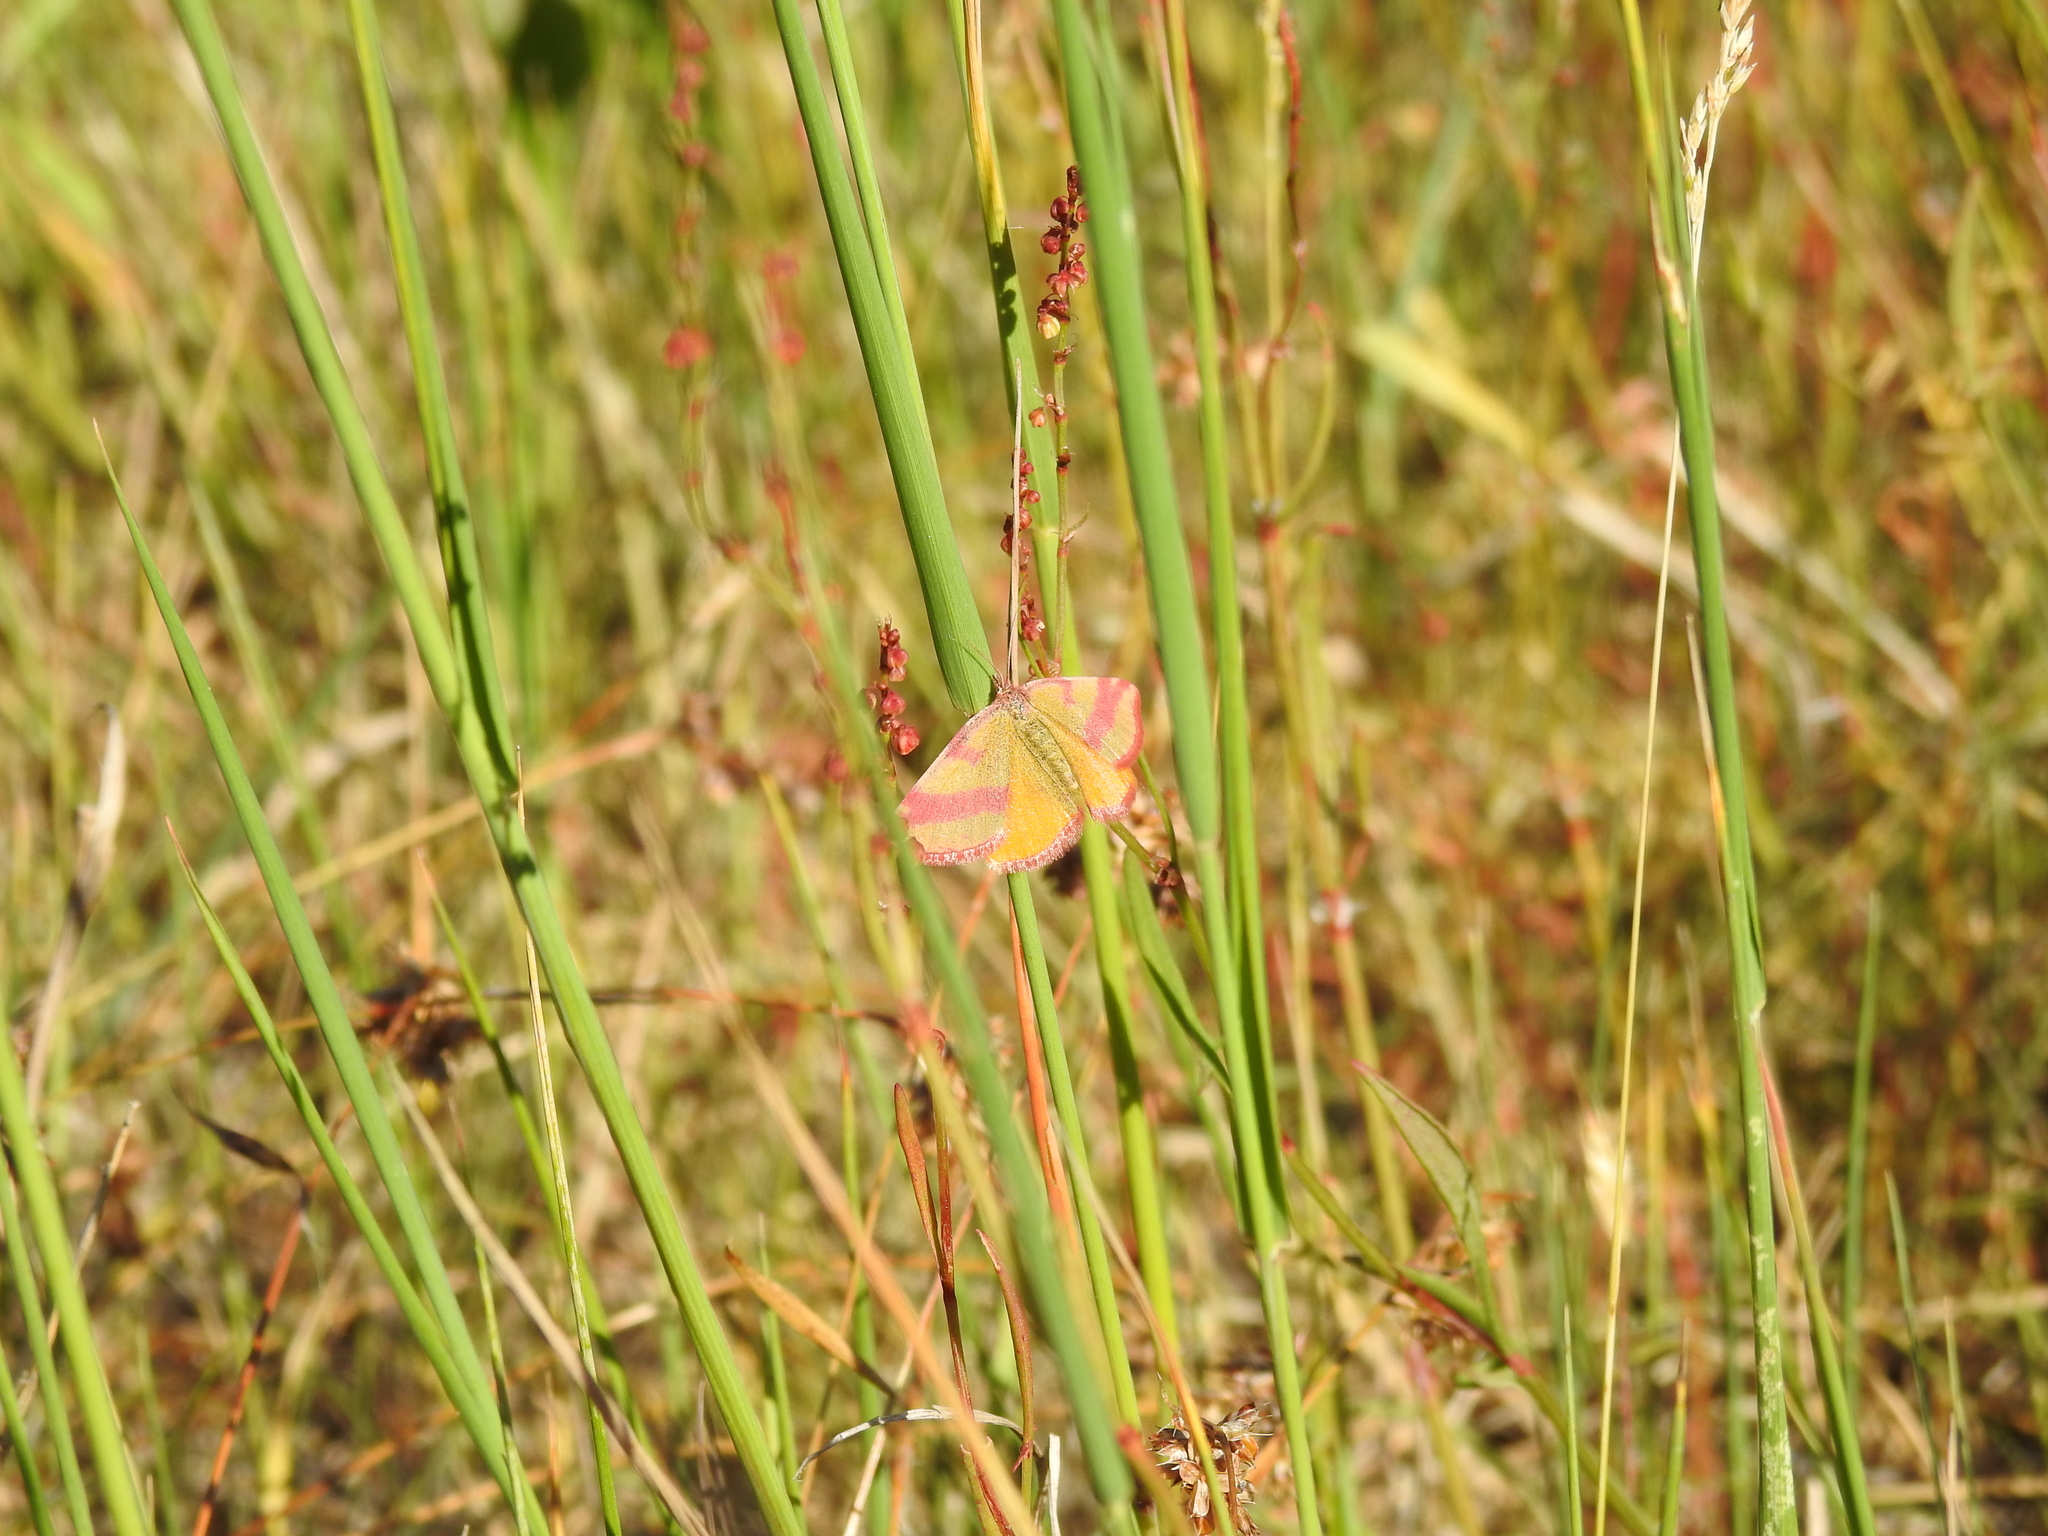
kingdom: Animalia
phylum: Arthropoda
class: Insecta
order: Lepidoptera
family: Geometridae
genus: Lythria
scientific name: Lythria cruentaria
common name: Purple-barred yellow
